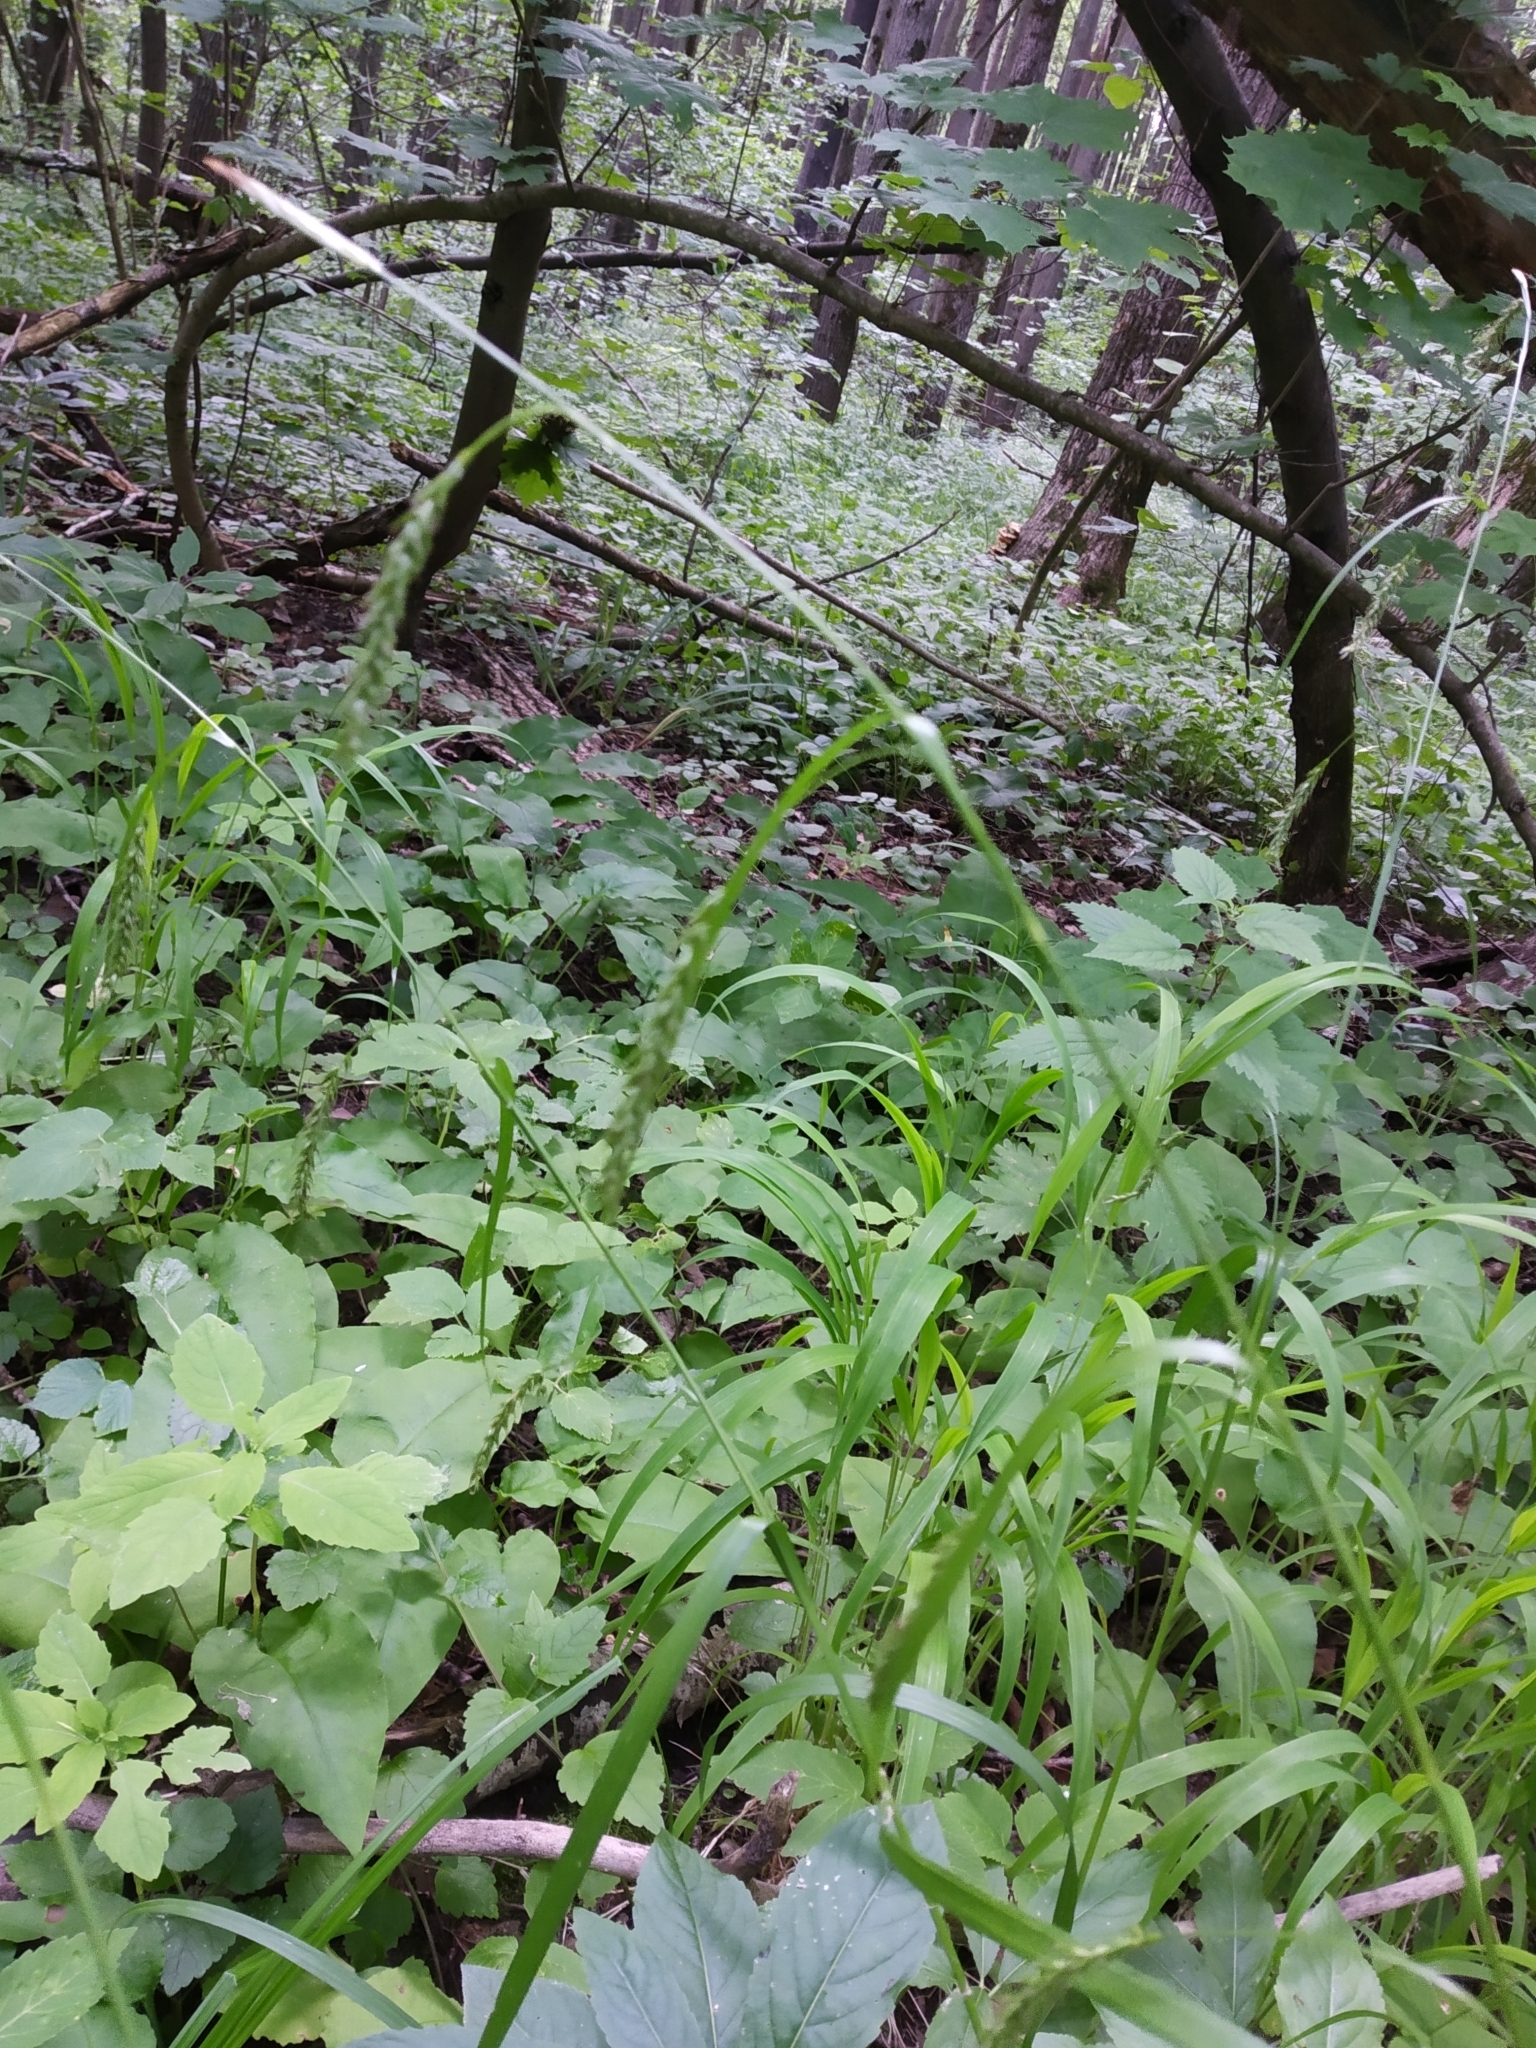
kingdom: Plantae
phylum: Tracheophyta
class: Liliopsida
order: Poales
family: Cyperaceae
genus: Carex
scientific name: Carex sylvatica
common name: Wood-sedge
